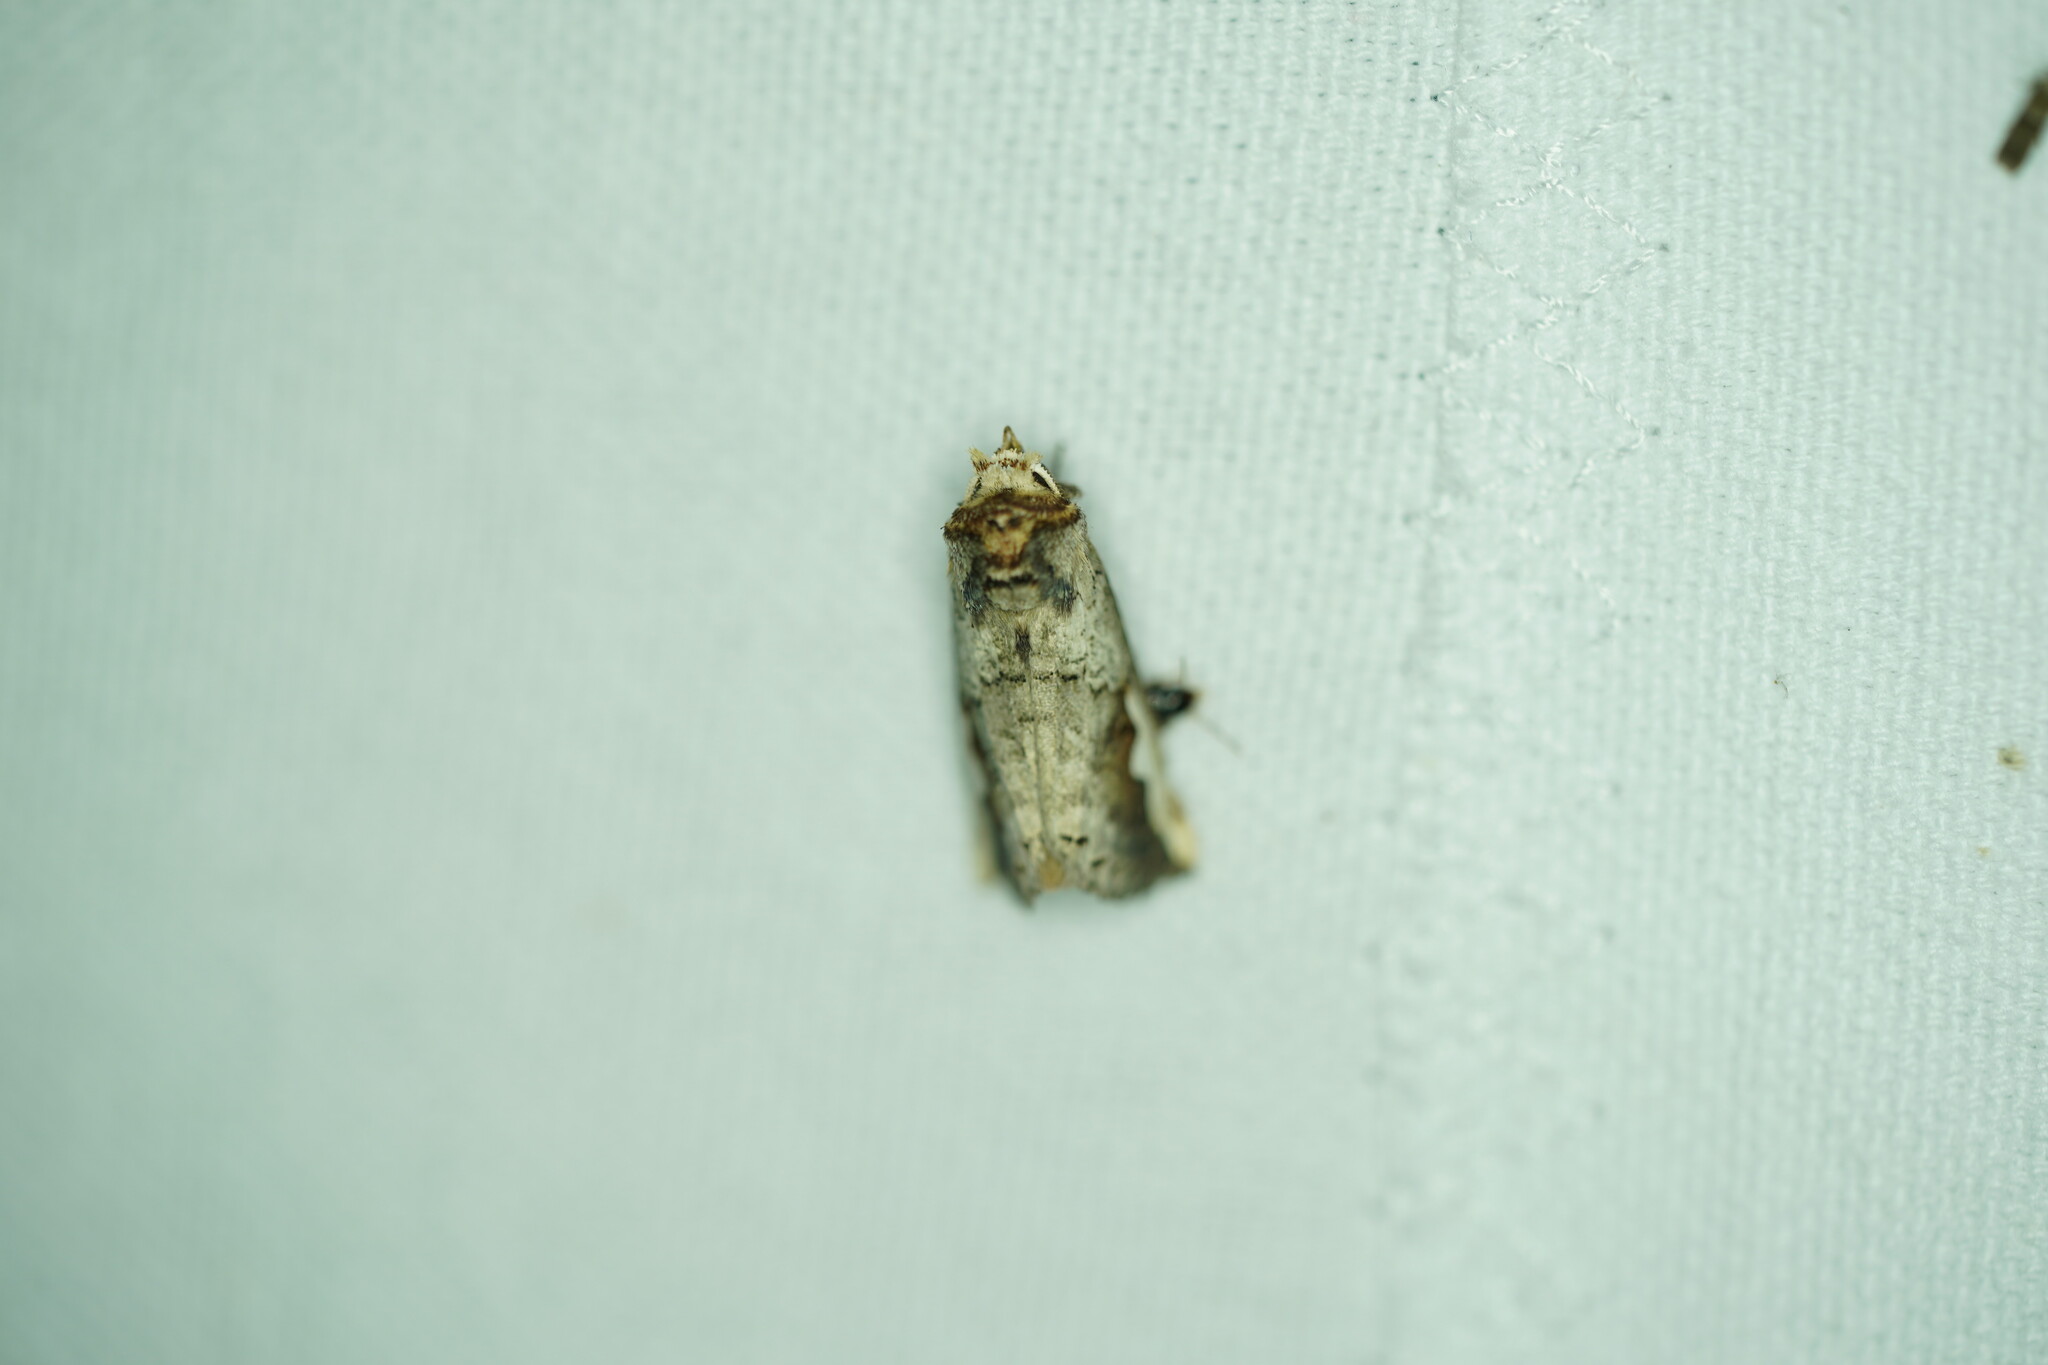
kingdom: Animalia
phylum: Arthropoda
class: Insecta
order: Lepidoptera
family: Notodontidae
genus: Symmerista
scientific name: Symmerista albifrons
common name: White-headed prominent
